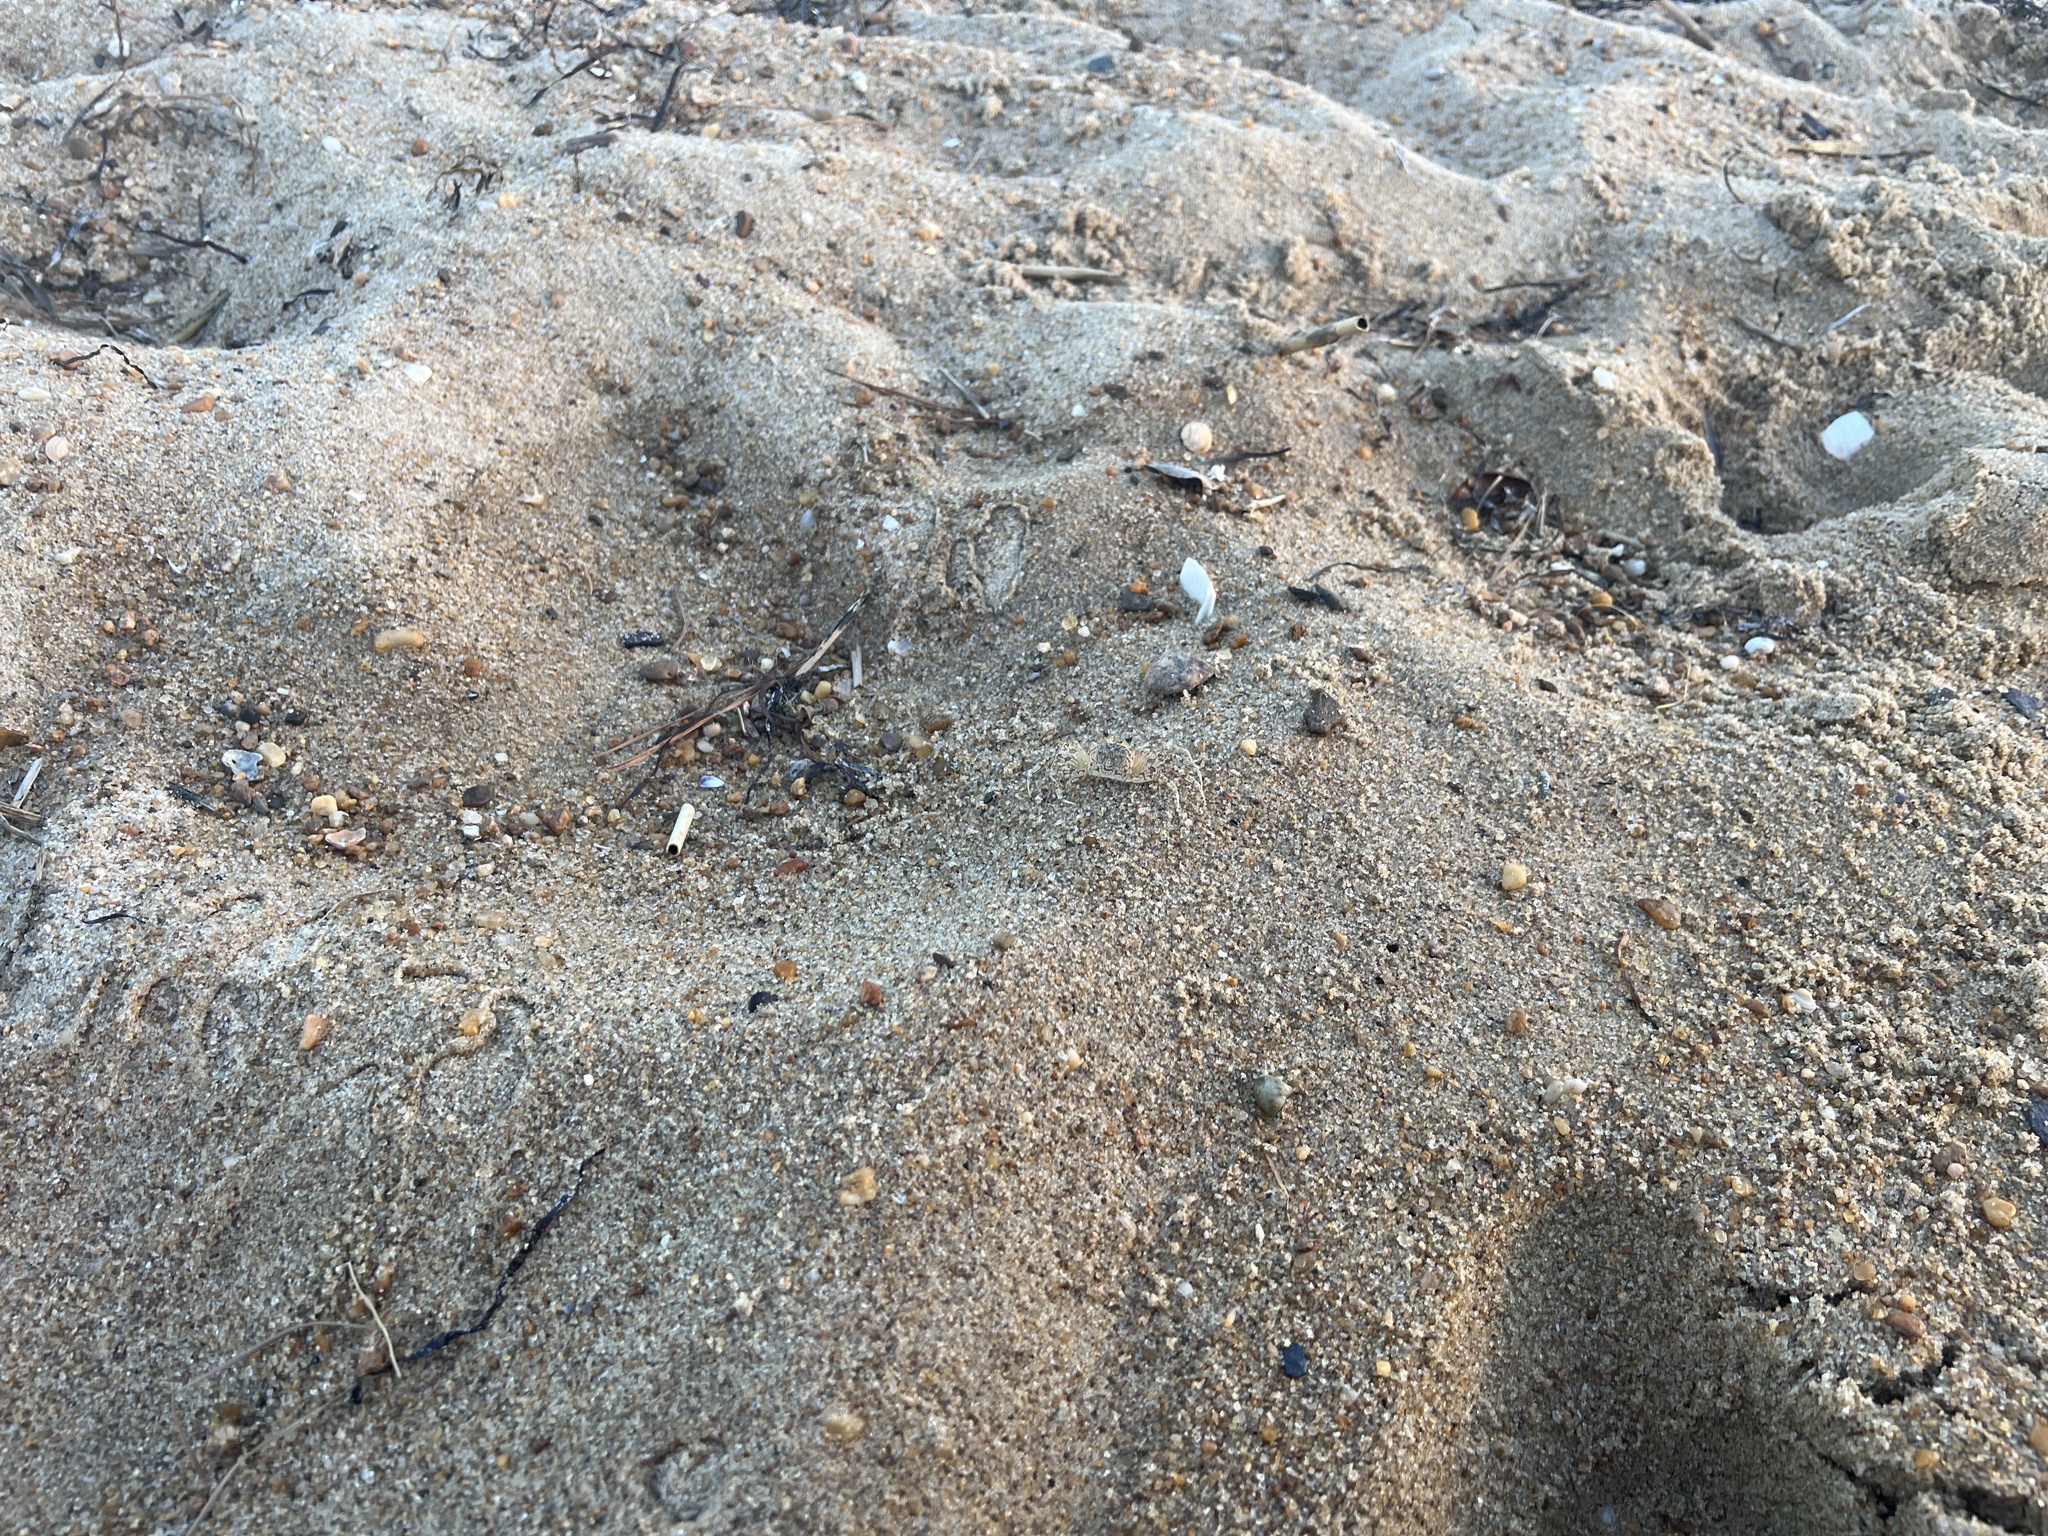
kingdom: Animalia
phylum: Arthropoda
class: Malacostraca
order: Decapoda
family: Ocypodidae
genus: Ocypode
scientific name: Ocypode quadrata
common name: Ghost crab
